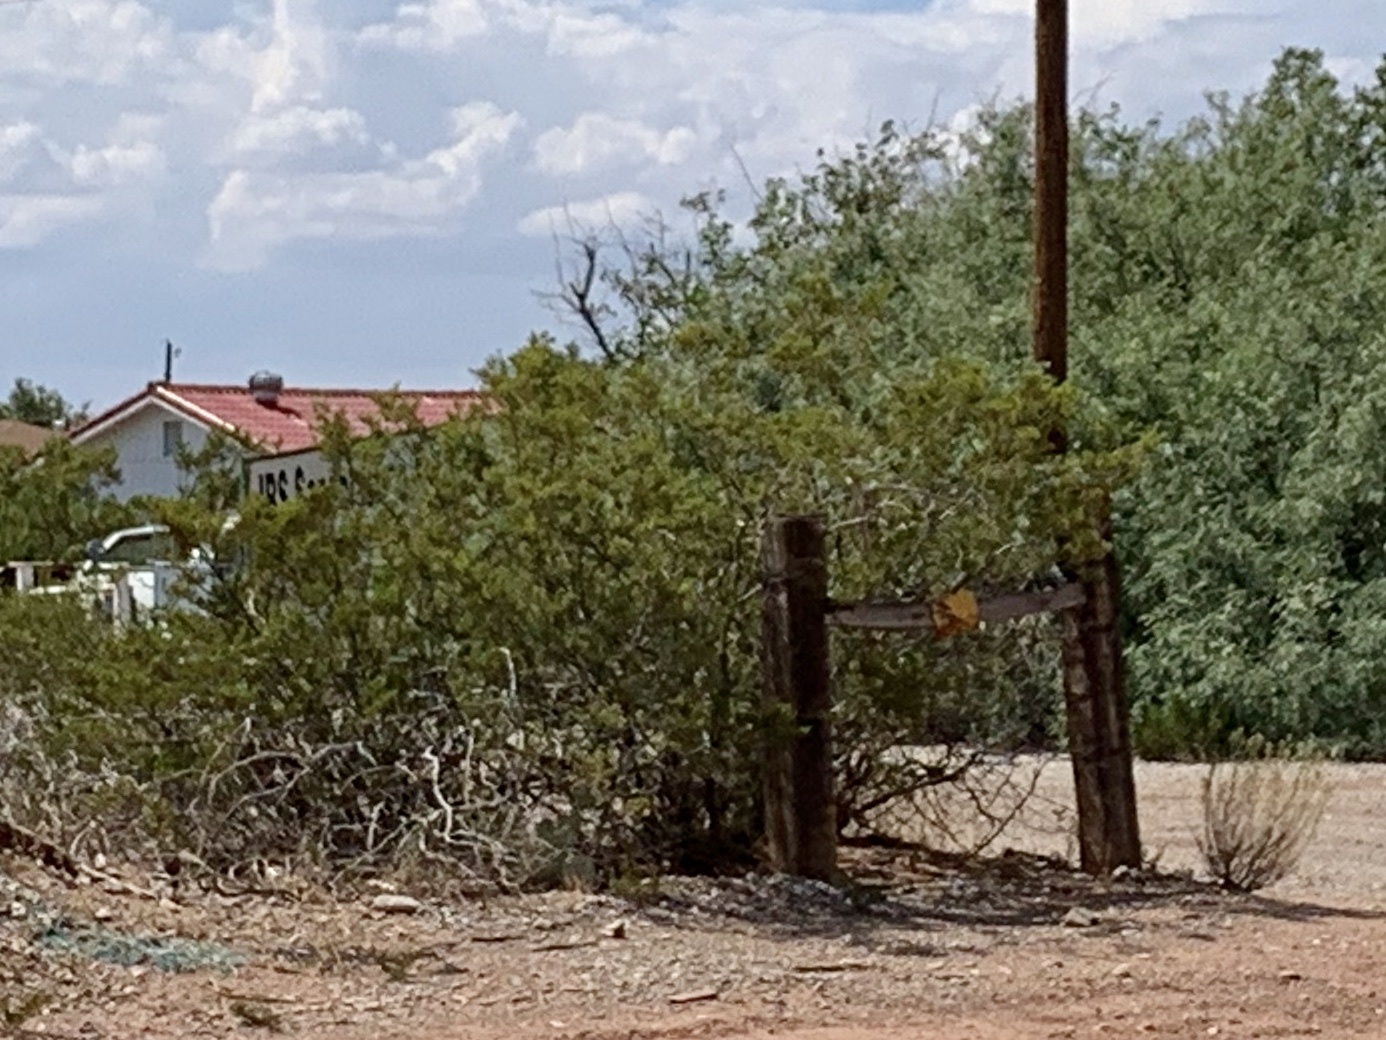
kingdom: Plantae
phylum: Tracheophyta
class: Magnoliopsida
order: Zygophyllales
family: Zygophyllaceae
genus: Larrea
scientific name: Larrea tridentata
